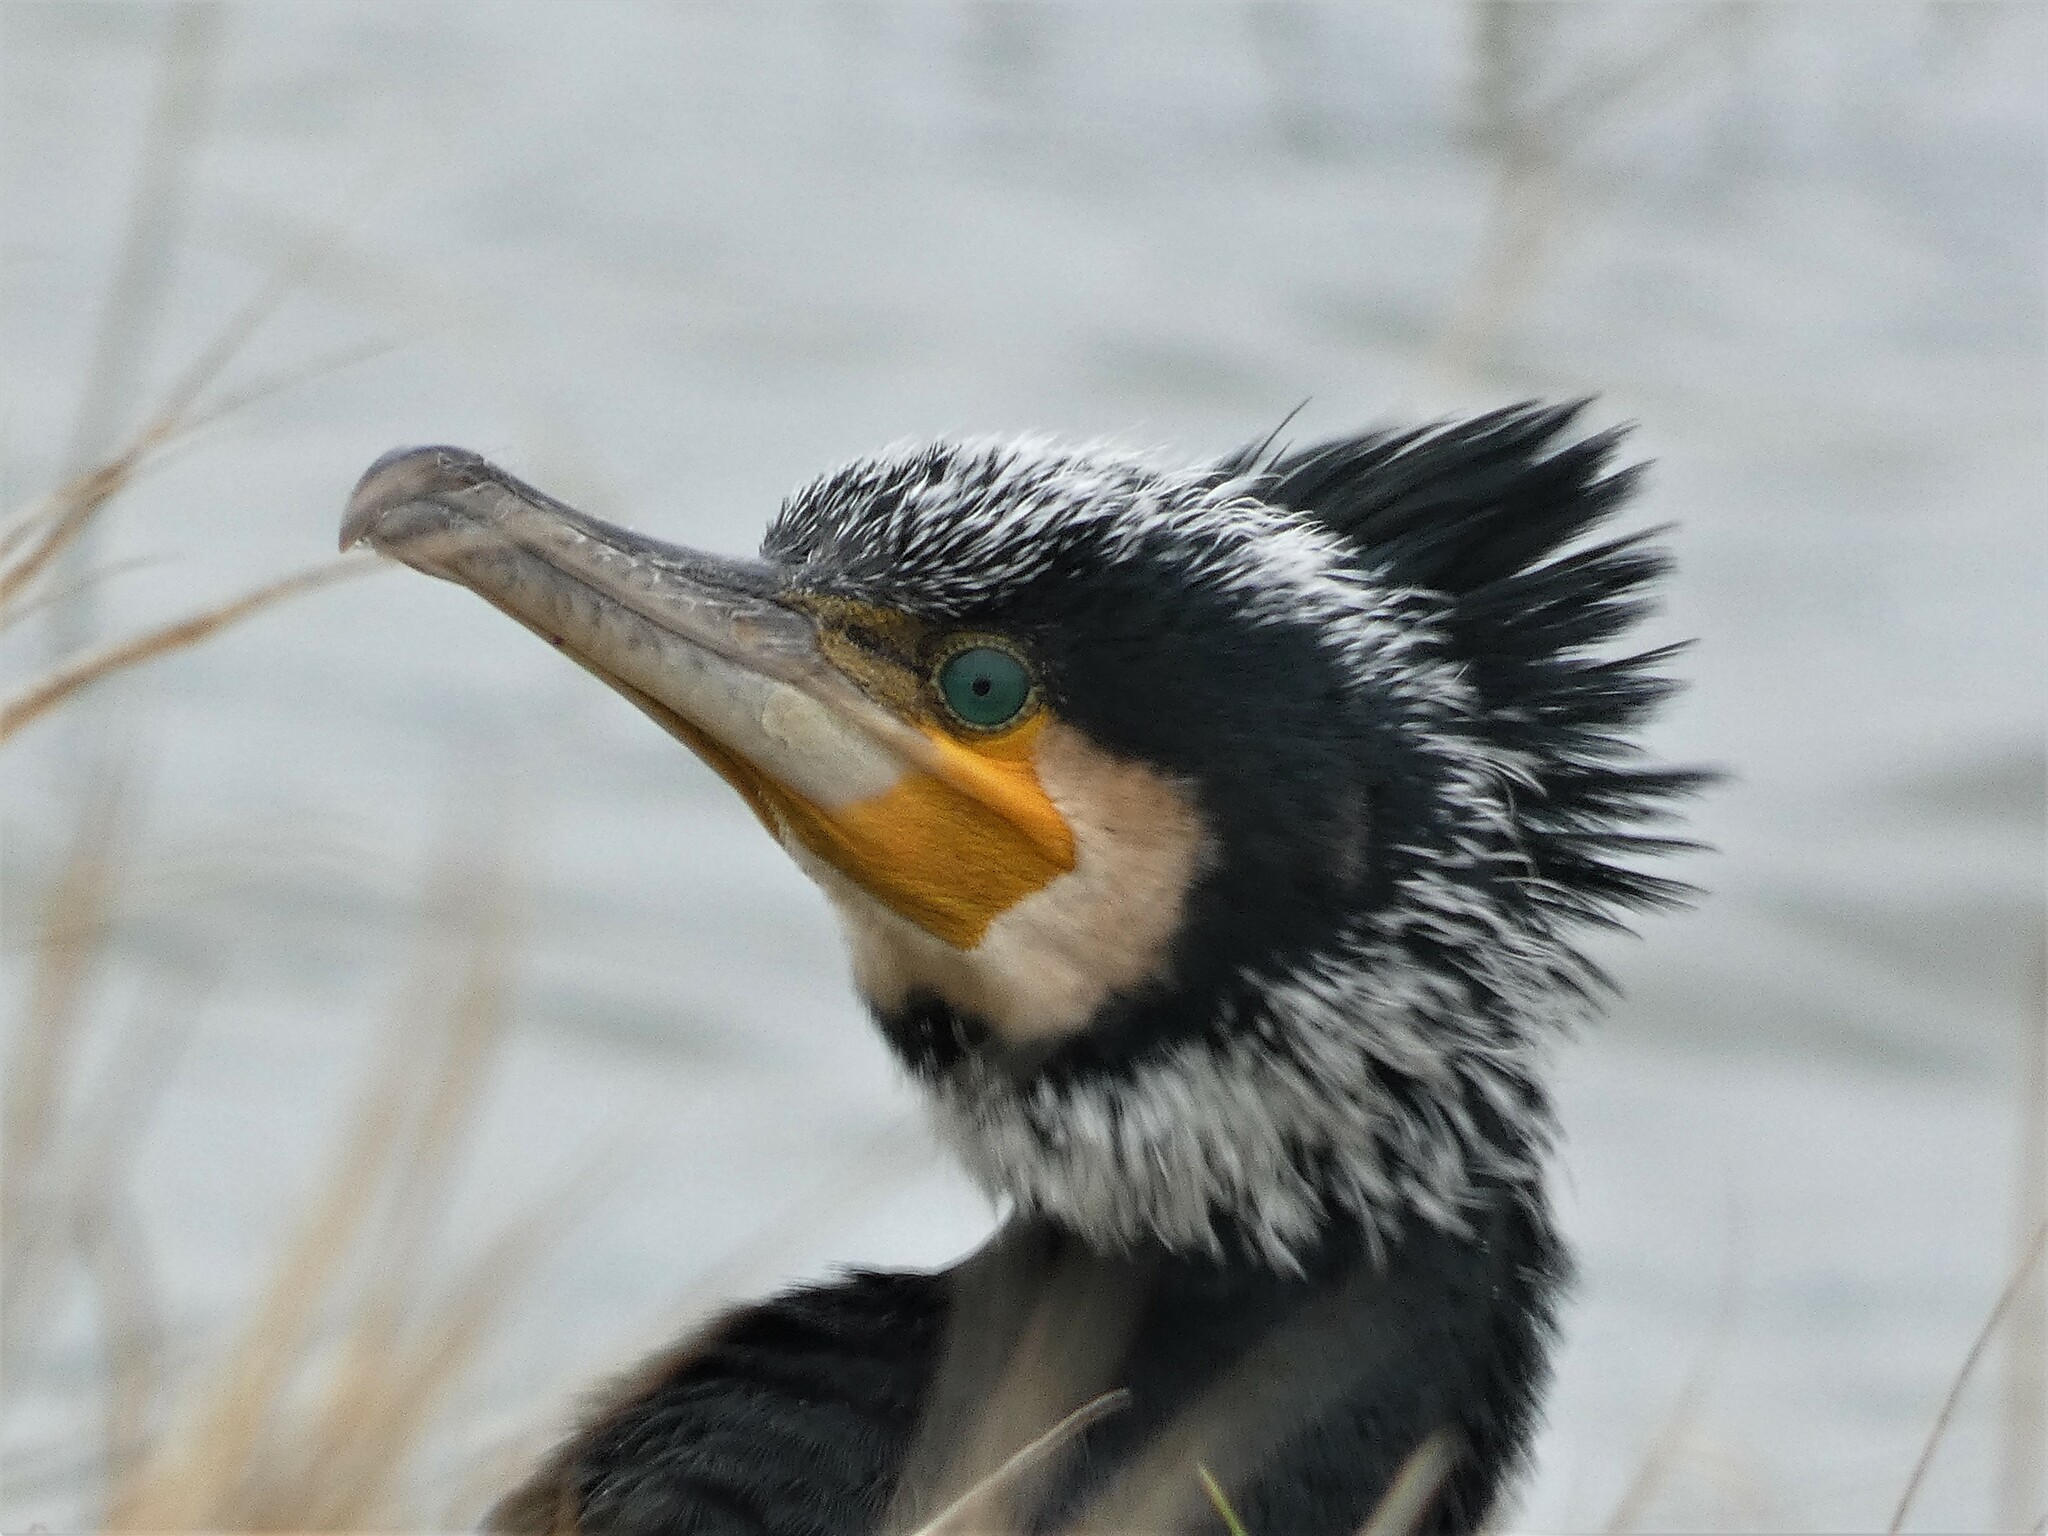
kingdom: Animalia
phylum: Chordata
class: Aves
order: Suliformes
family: Phalacrocoracidae
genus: Phalacrocorax
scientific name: Phalacrocorax carbo
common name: Great cormorant
